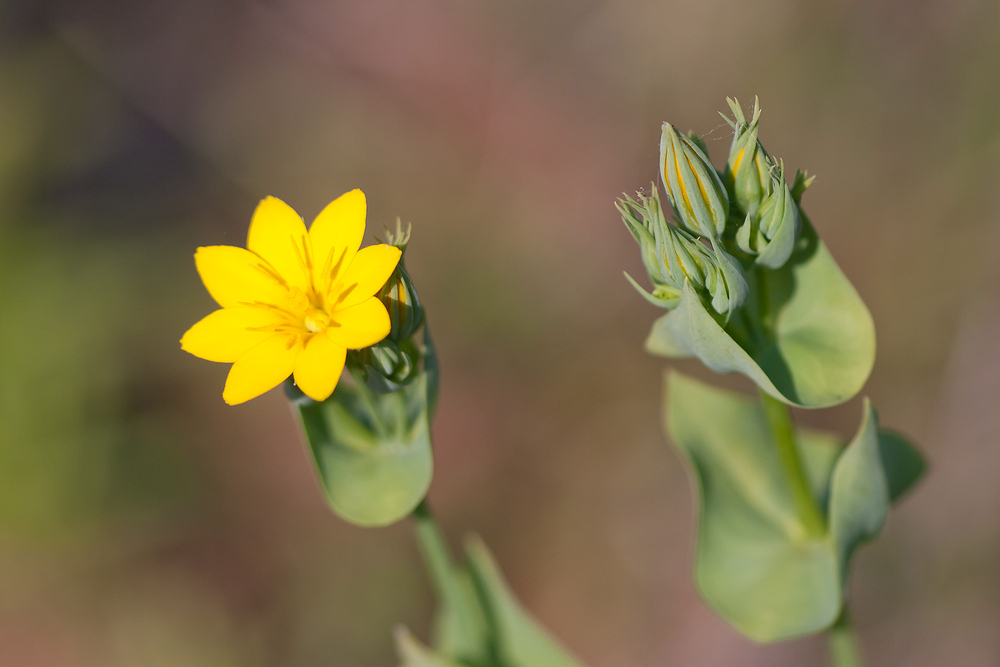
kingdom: Plantae
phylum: Tracheophyta
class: Magnoliopsida
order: Gentianales
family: Gentianaceae
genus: Blackstonia
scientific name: Blackstonia perfoliata
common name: Yellow-wort
